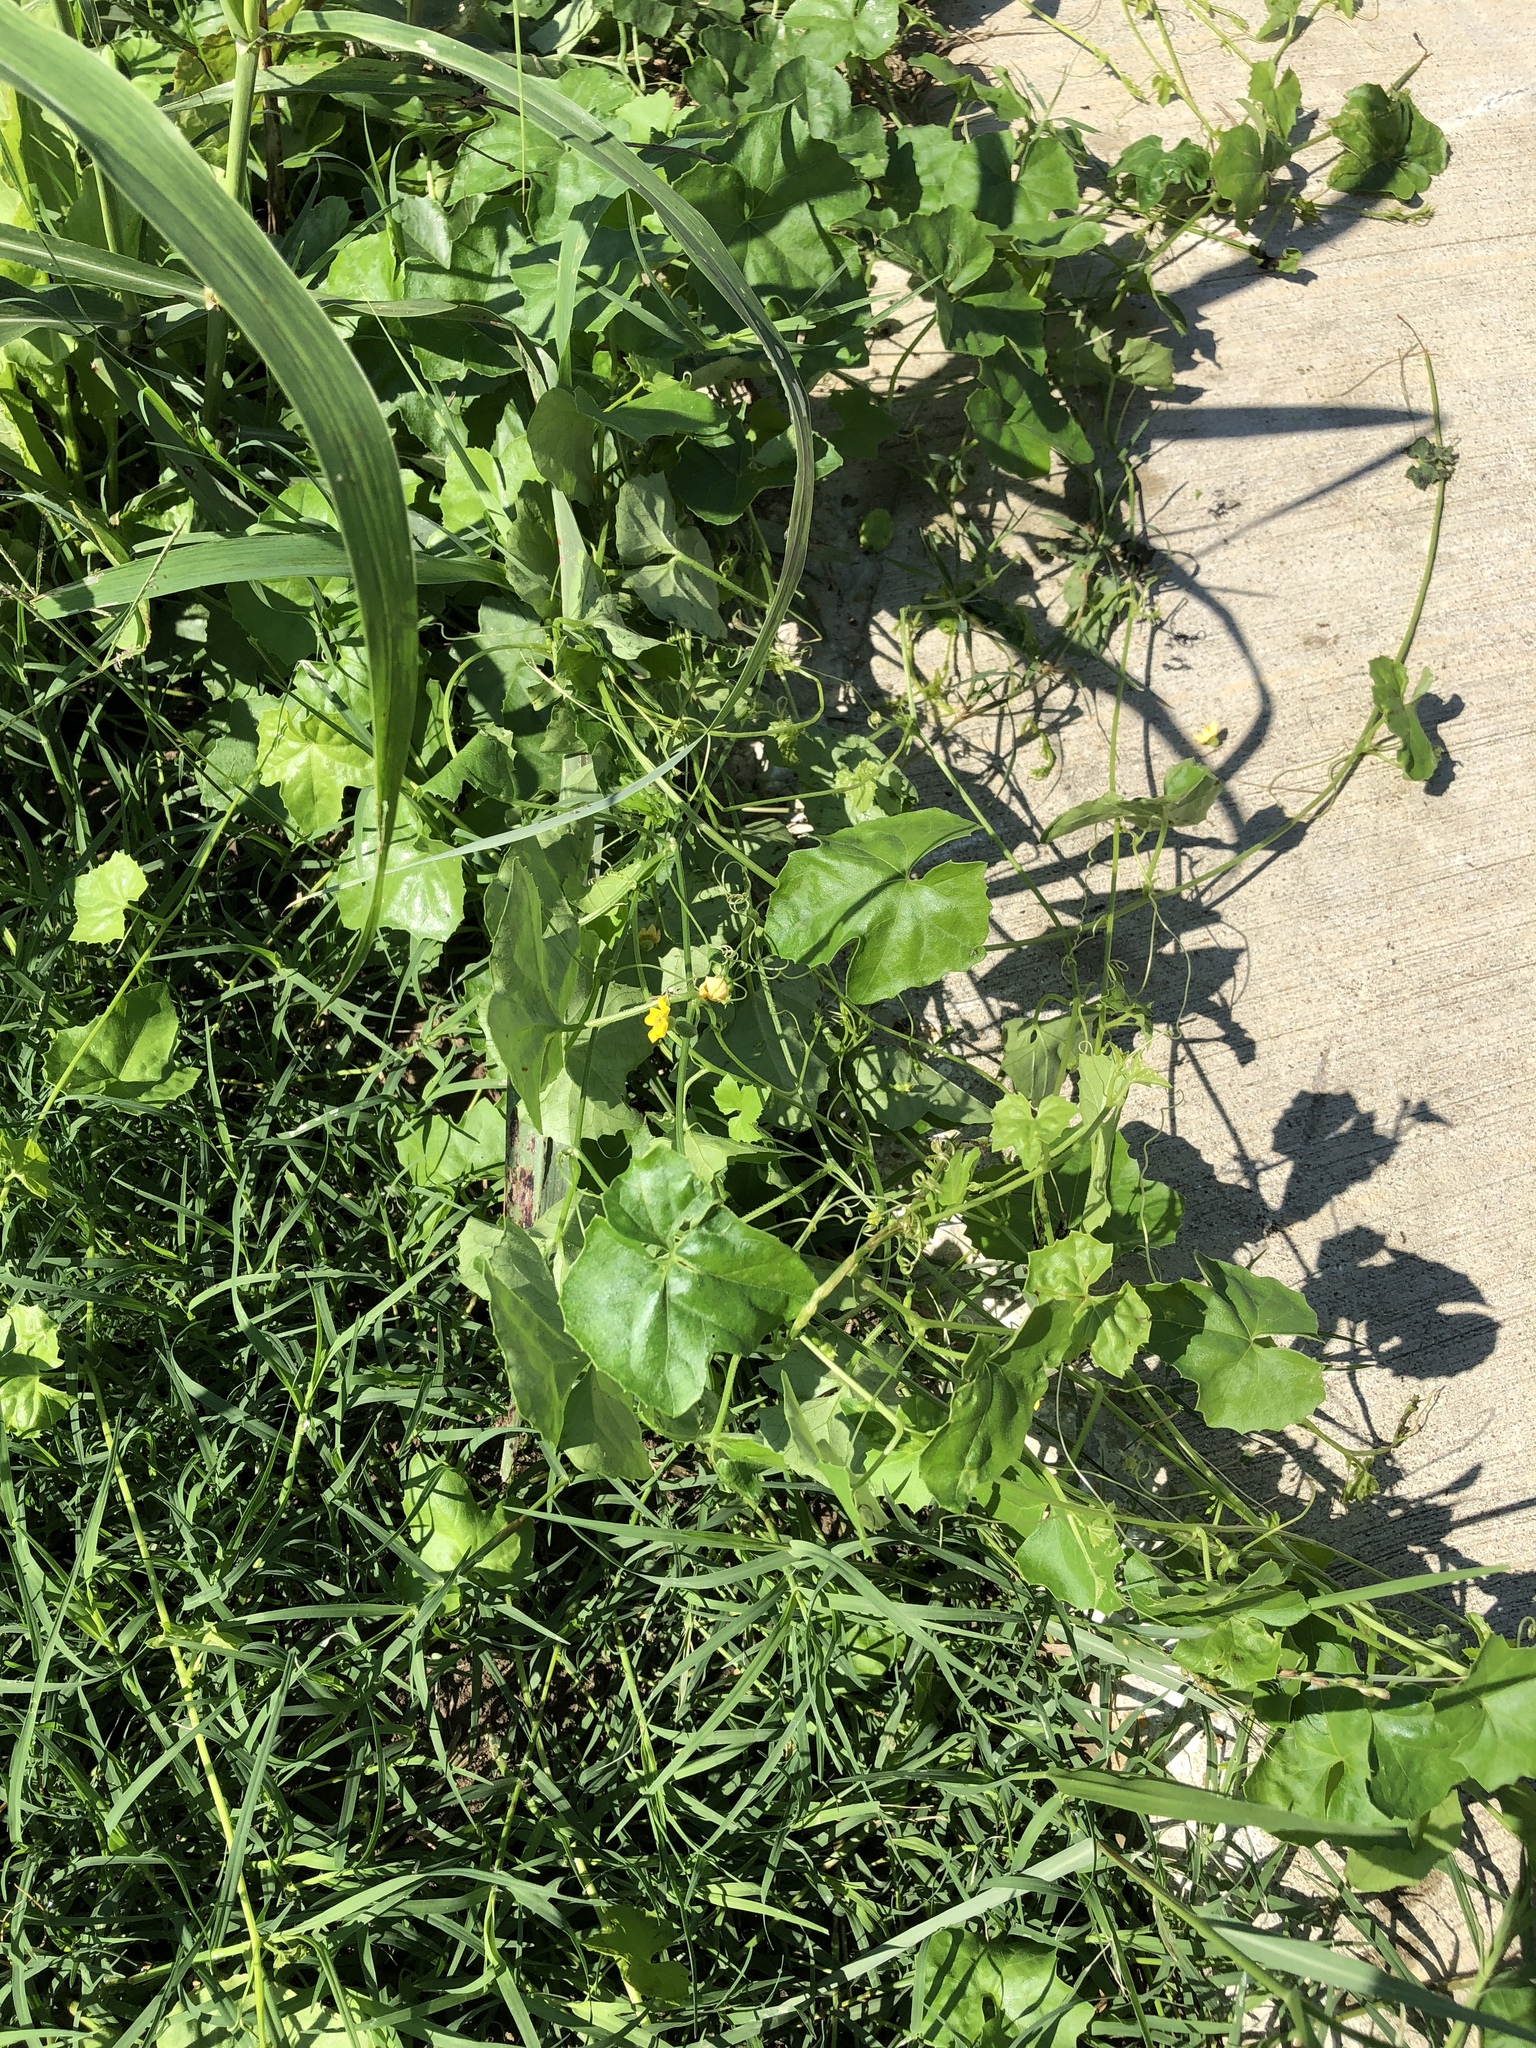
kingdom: Plantae
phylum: Tracheophyta
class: Magnoliopsida
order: Cucurbitales
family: Cucurbitaceae
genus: Melothria
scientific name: Melothria pendula
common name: Creeping-cucumber
